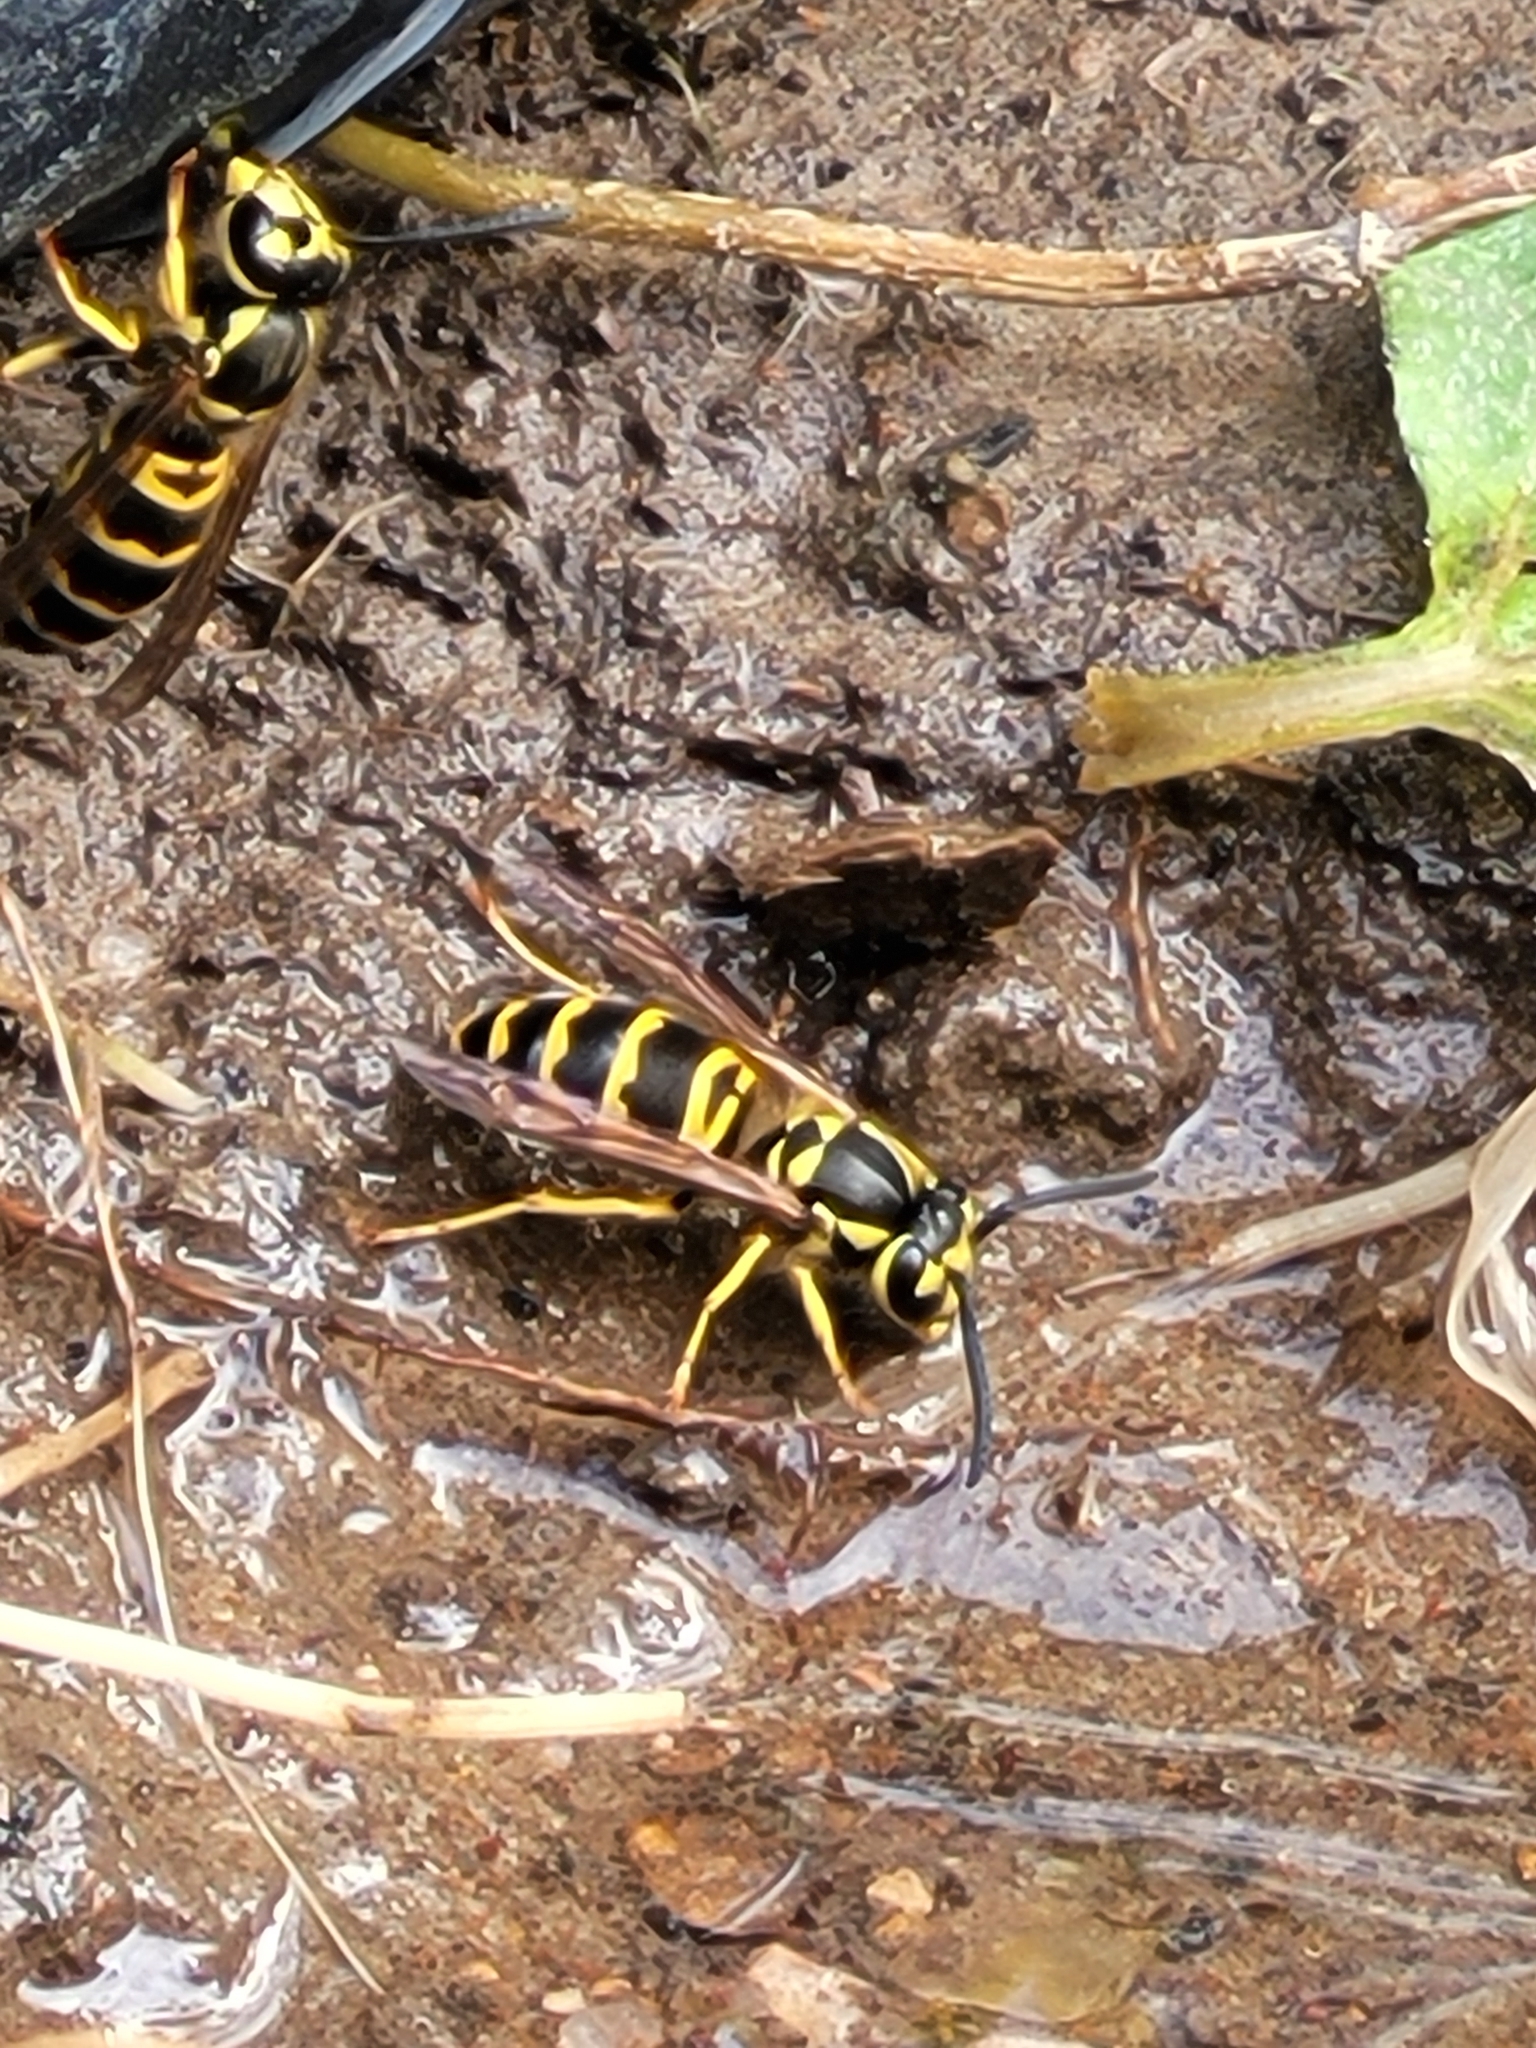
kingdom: Animalia
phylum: Arthropoda
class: Insecta
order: Hymenoptera
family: Vespidae
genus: Vespula
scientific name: Vespula maculifrons
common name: Eastern yellowjacket
